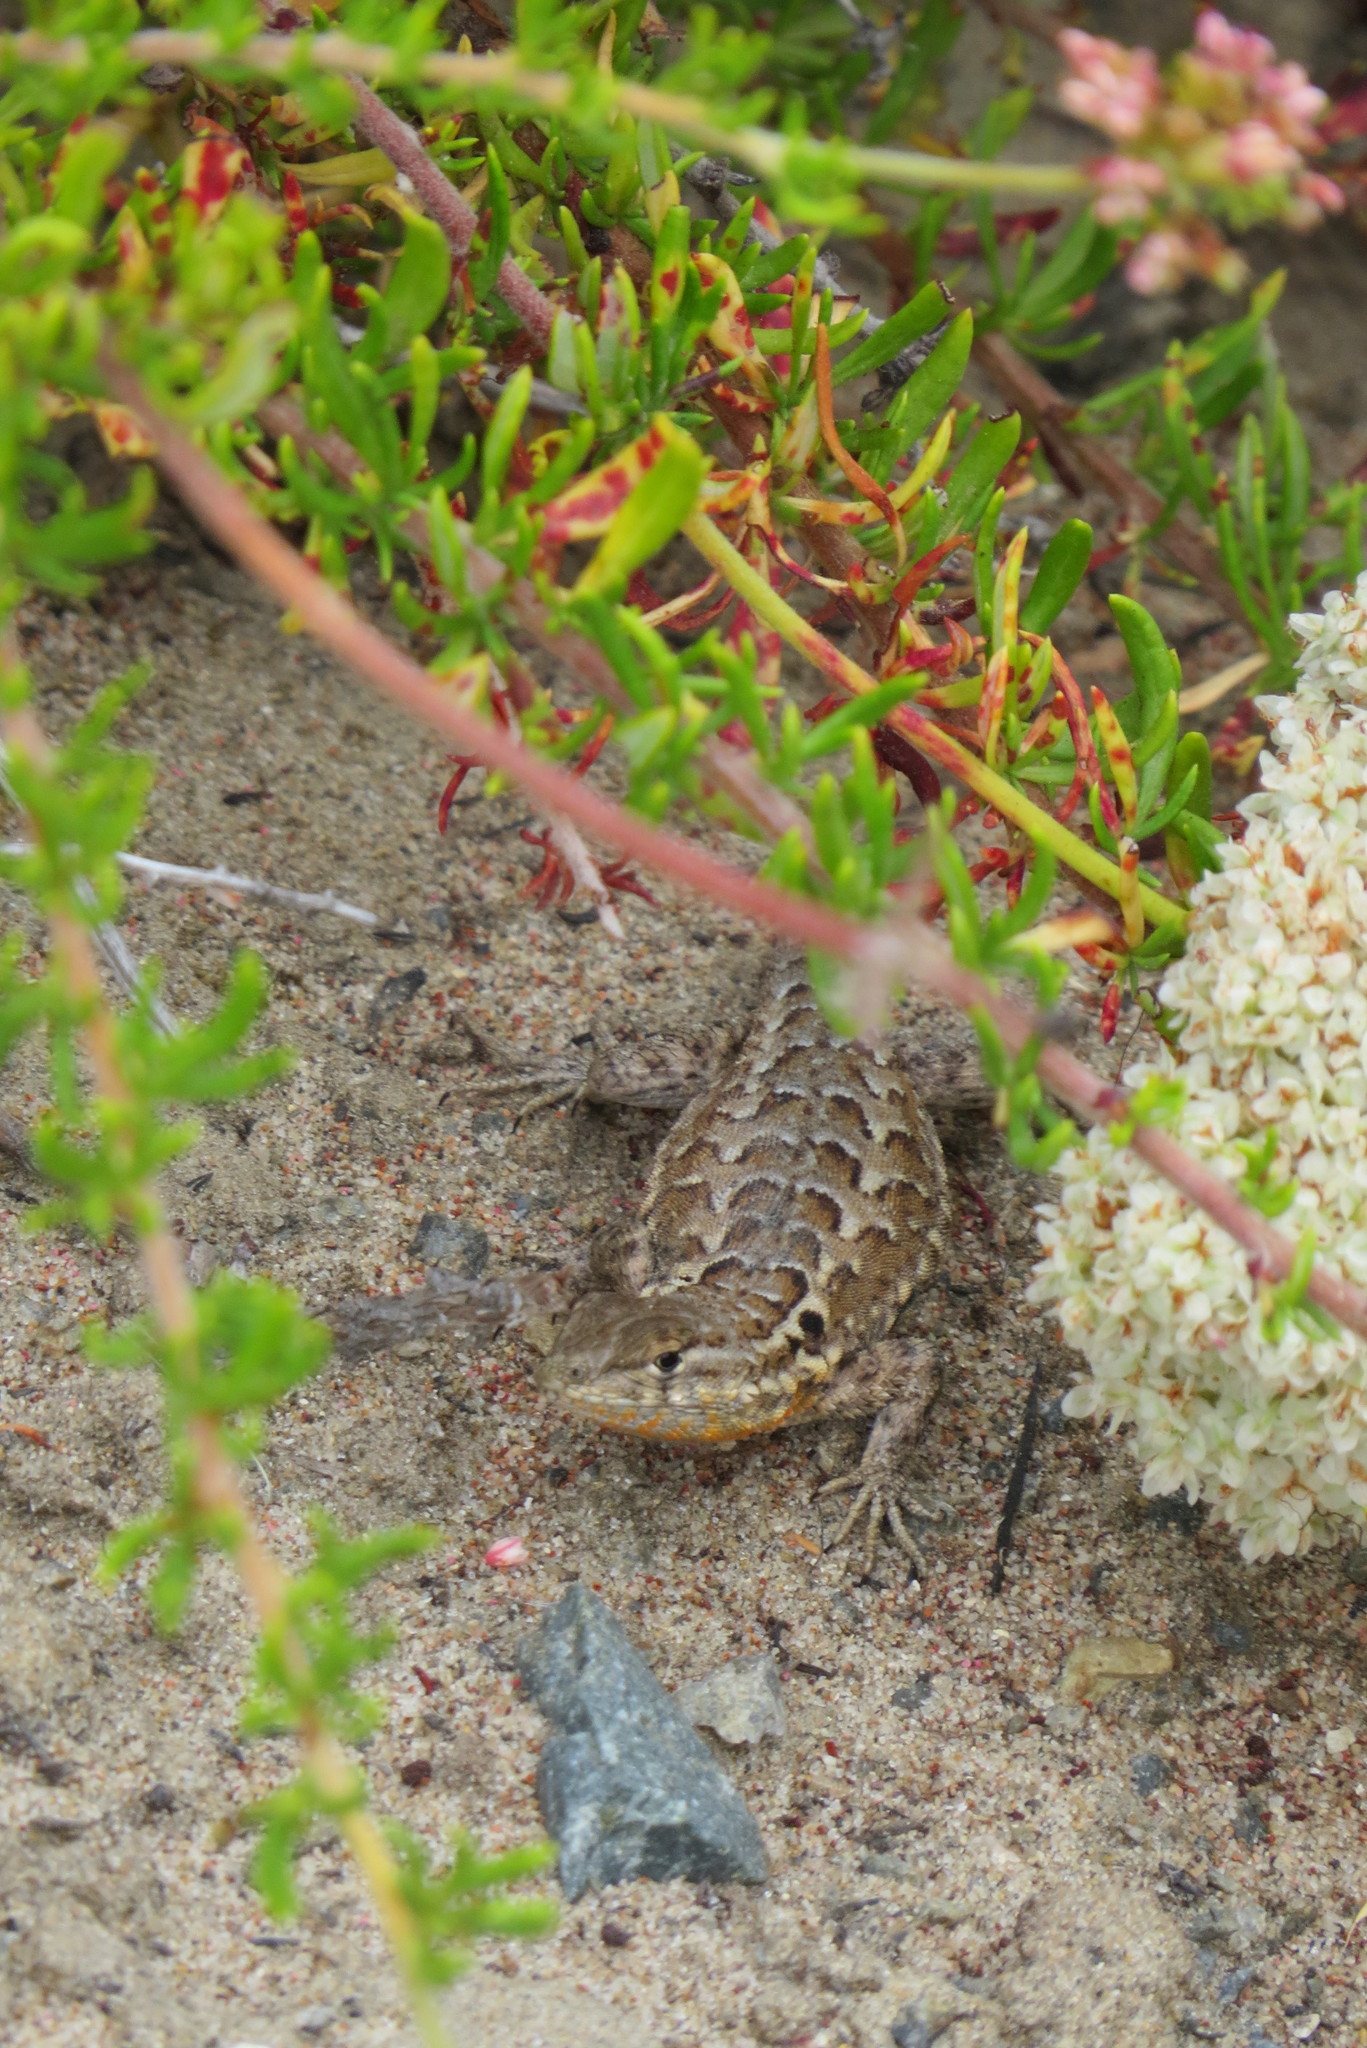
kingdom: Animalia
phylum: Chordata
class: Squamata
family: Phrynosomatidae
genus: Uta
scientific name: Uta stansburiana
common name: Side-blotched lizard
